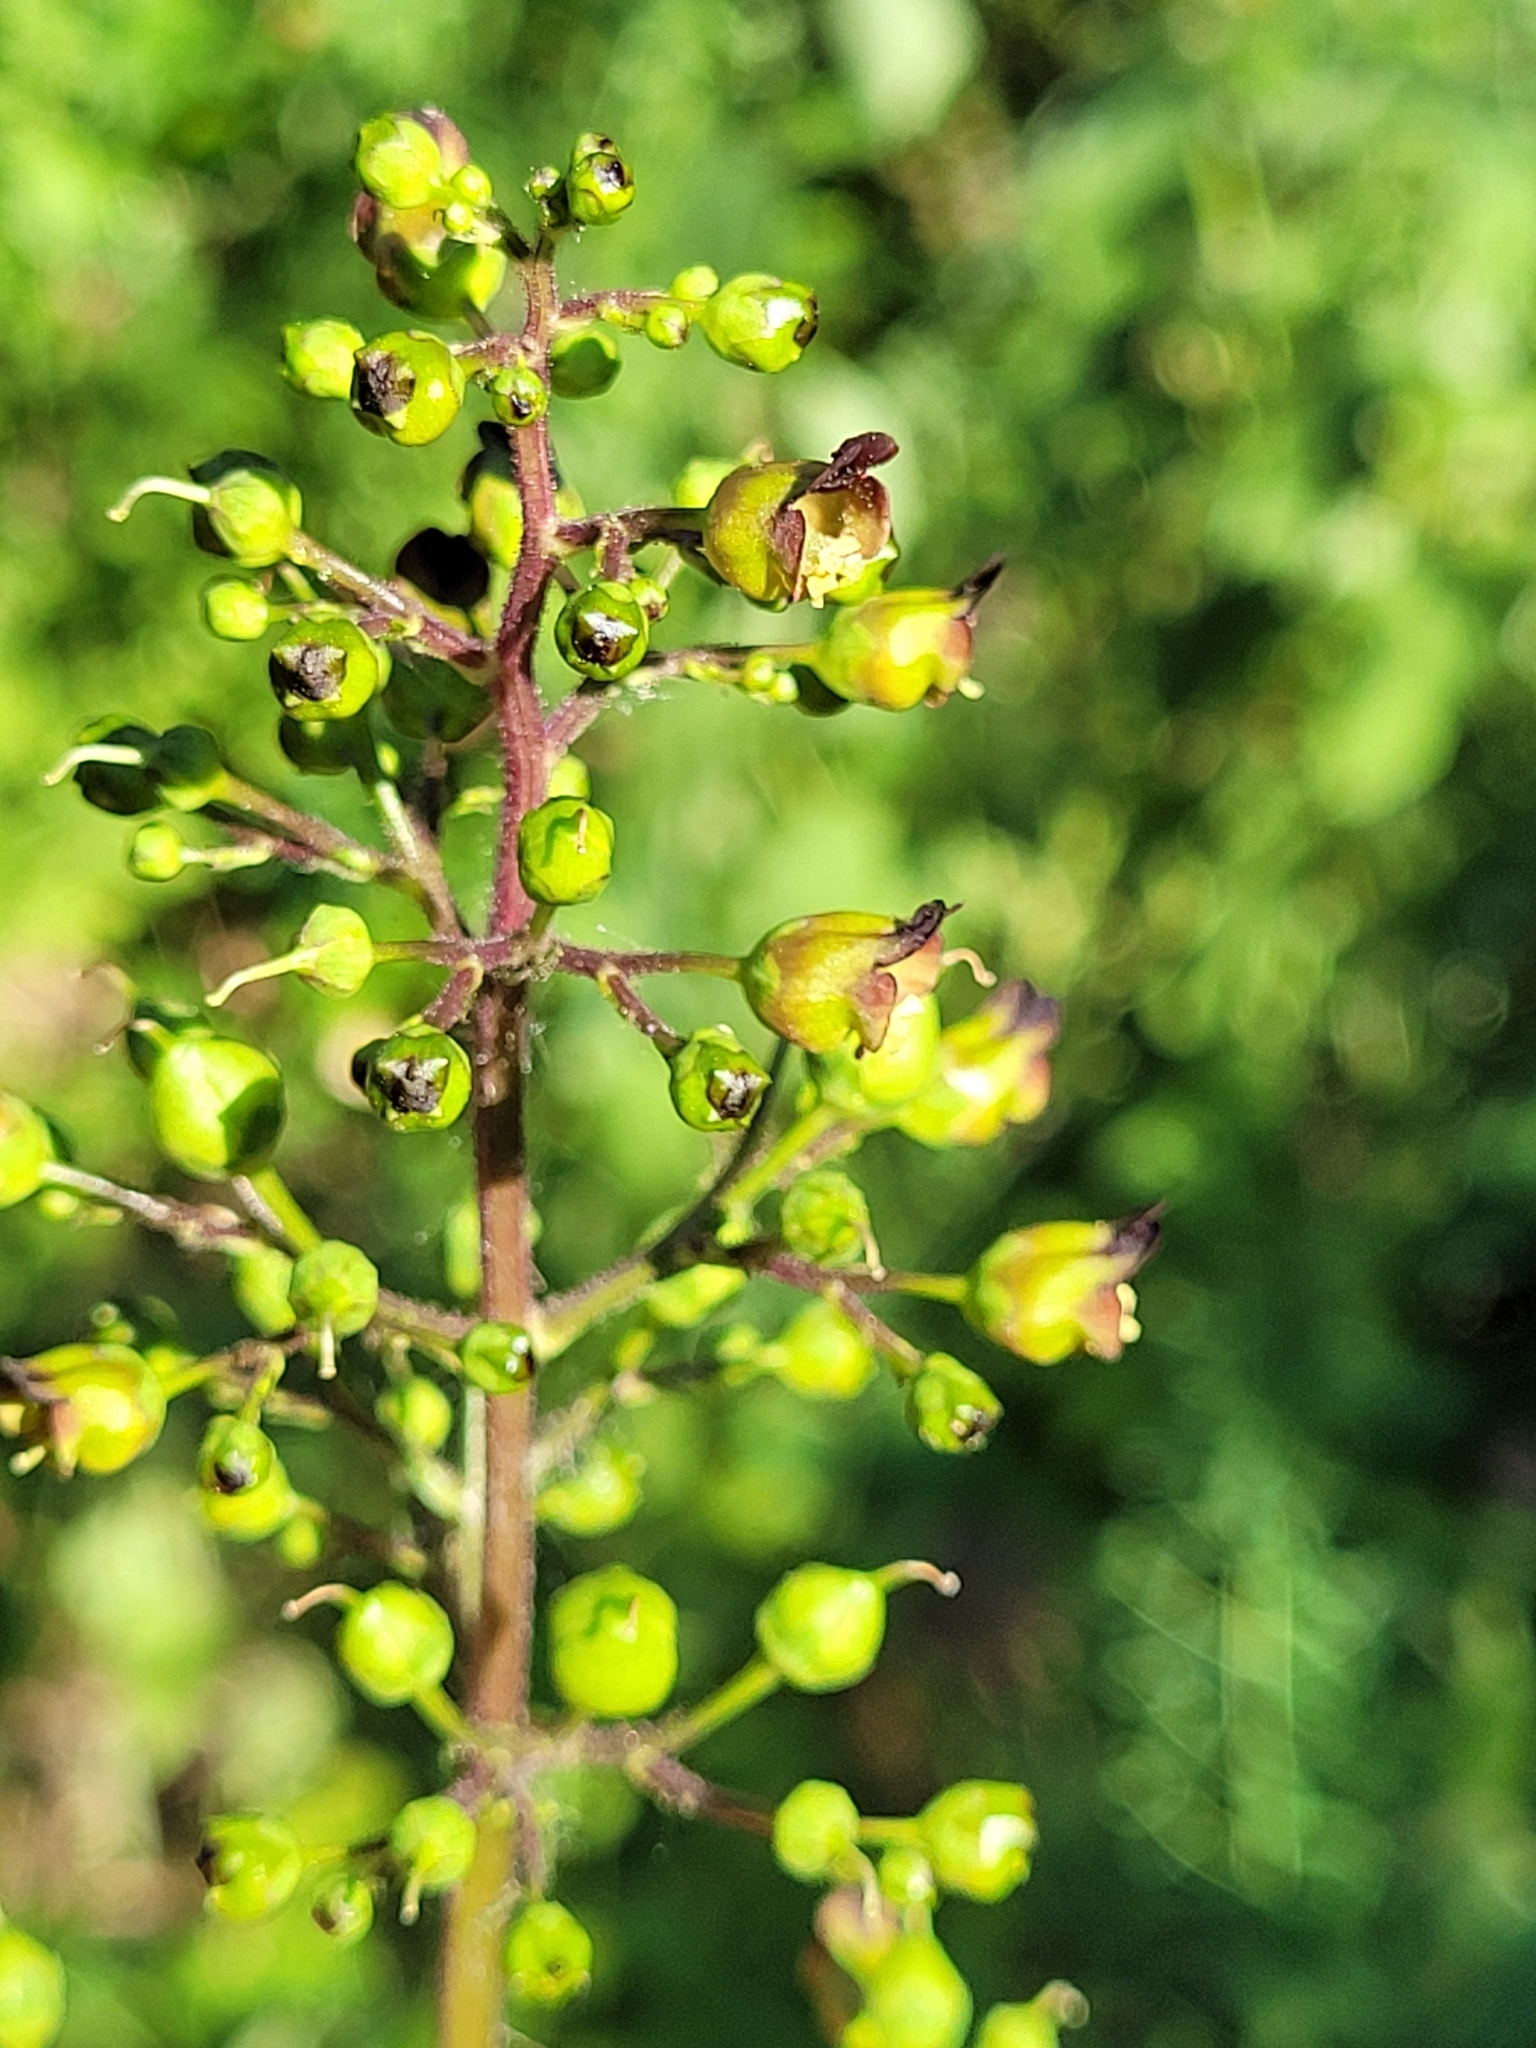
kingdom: Plantae
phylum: Tracheophyta
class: Magnoliopsida
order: Lamiales
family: Scrophulariaceae
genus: Scrophularia
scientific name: Scrophularia nodosa
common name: Common figwort
